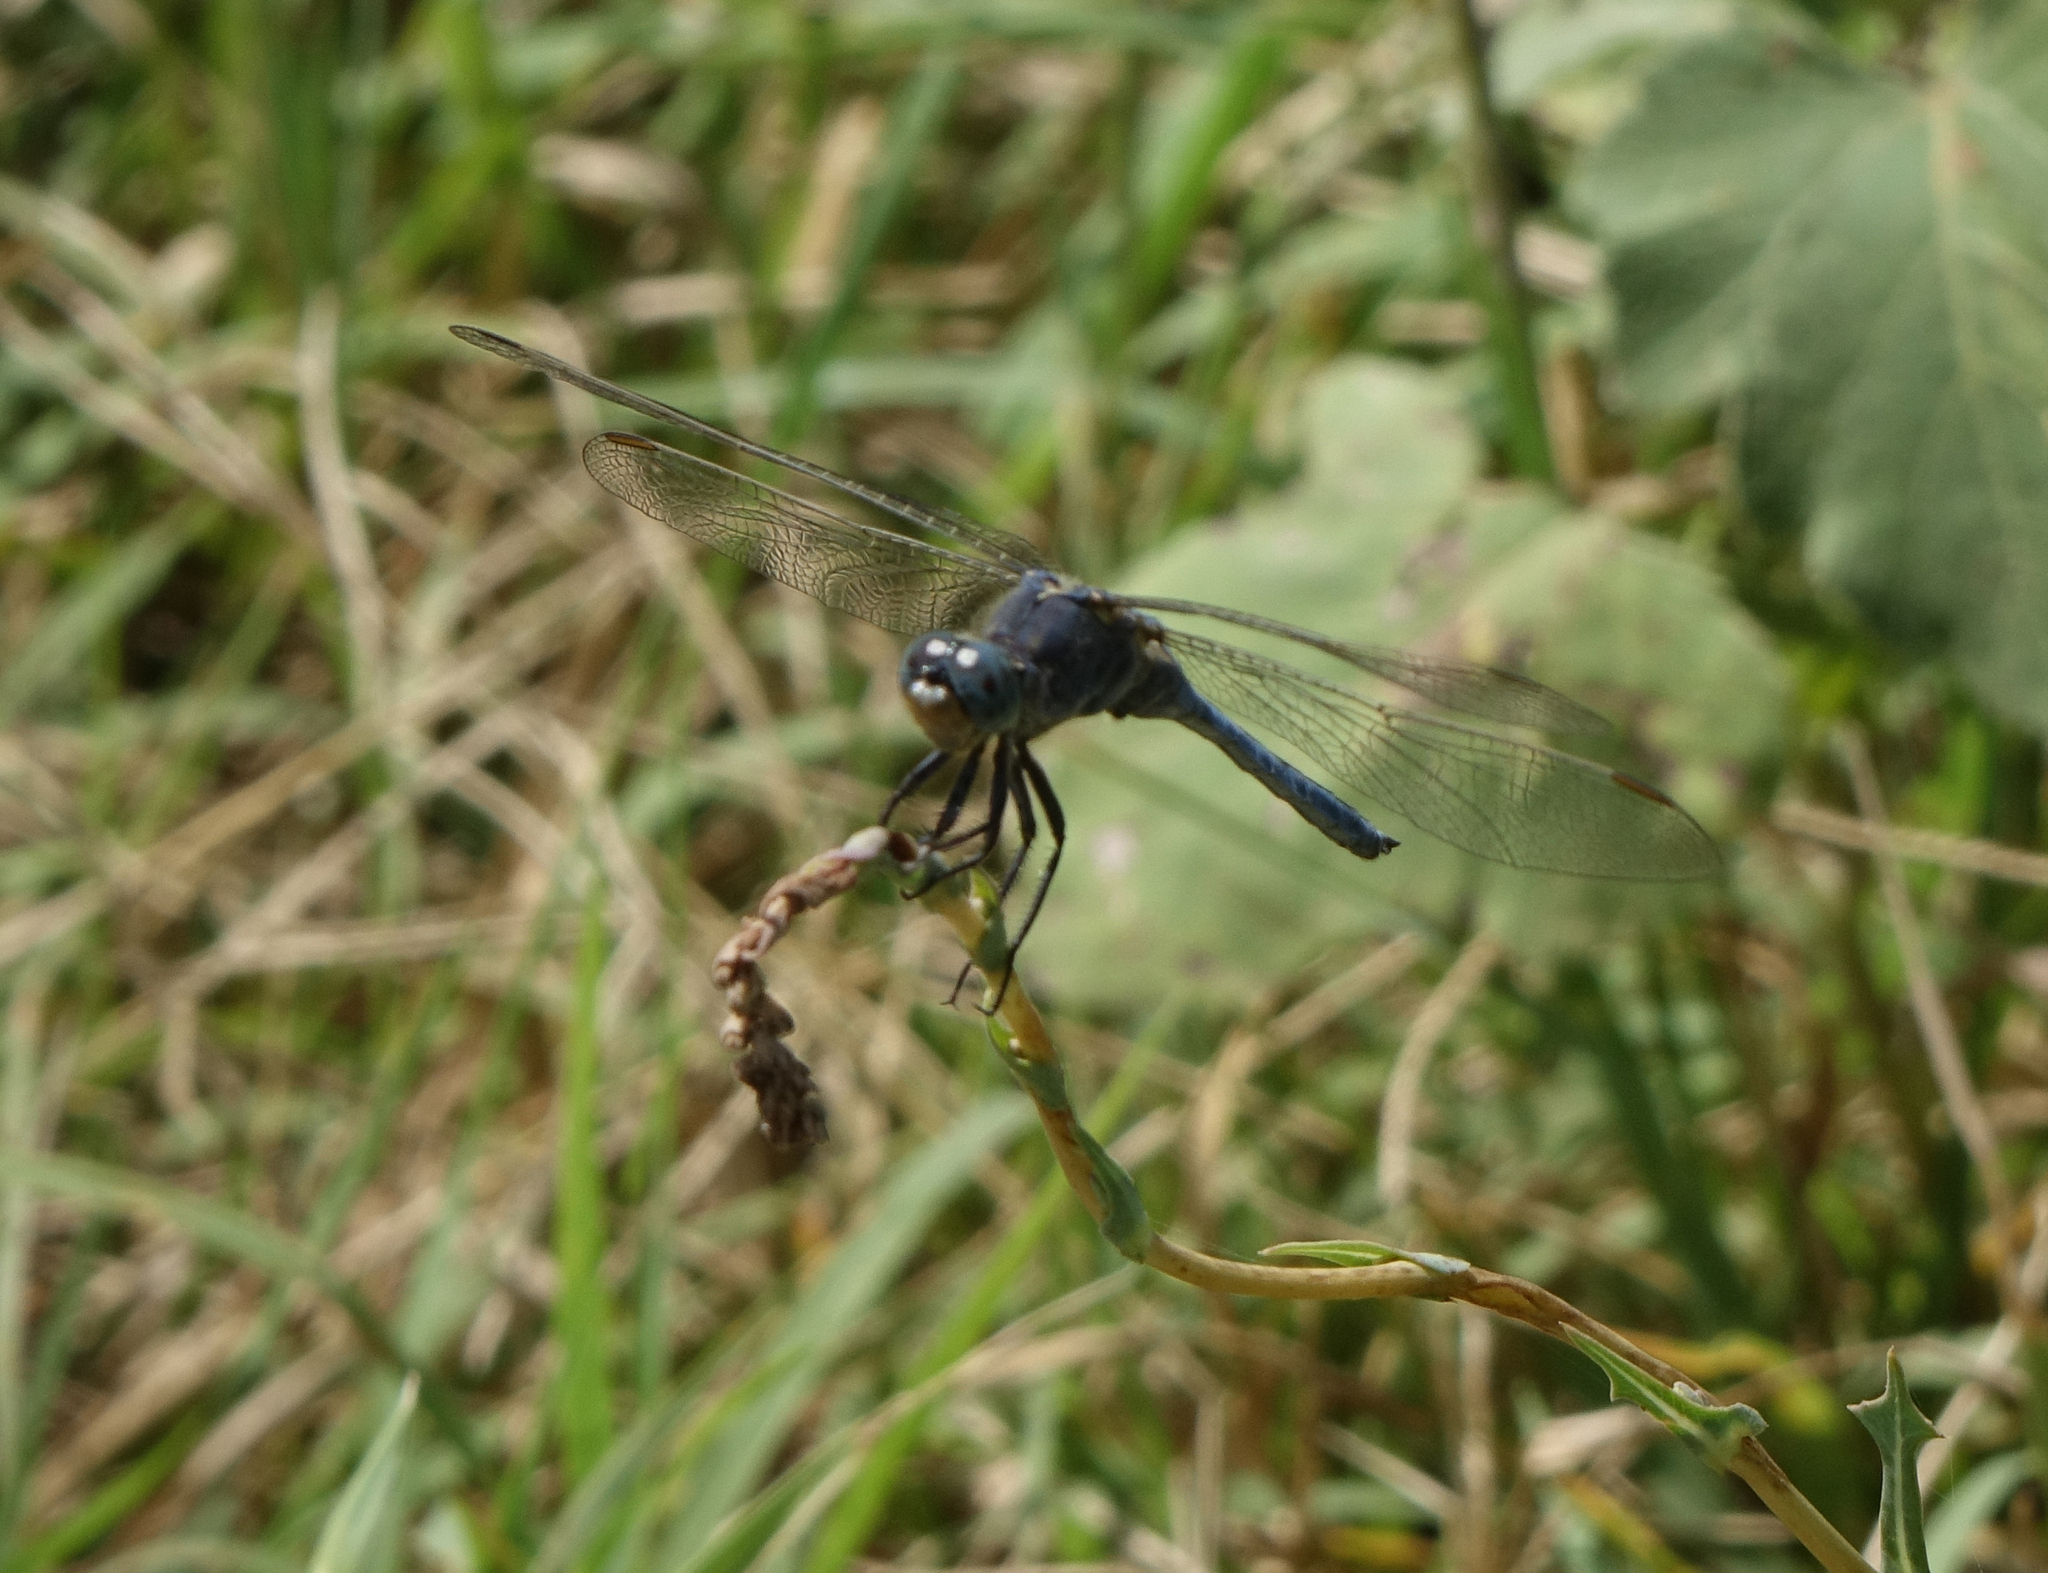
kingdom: Animalia
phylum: Arthropoda
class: Insecta
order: Odonata
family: Libellulidae
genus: Orthetrum
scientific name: Orthetrum coerulescens
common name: Keeled skimmer
